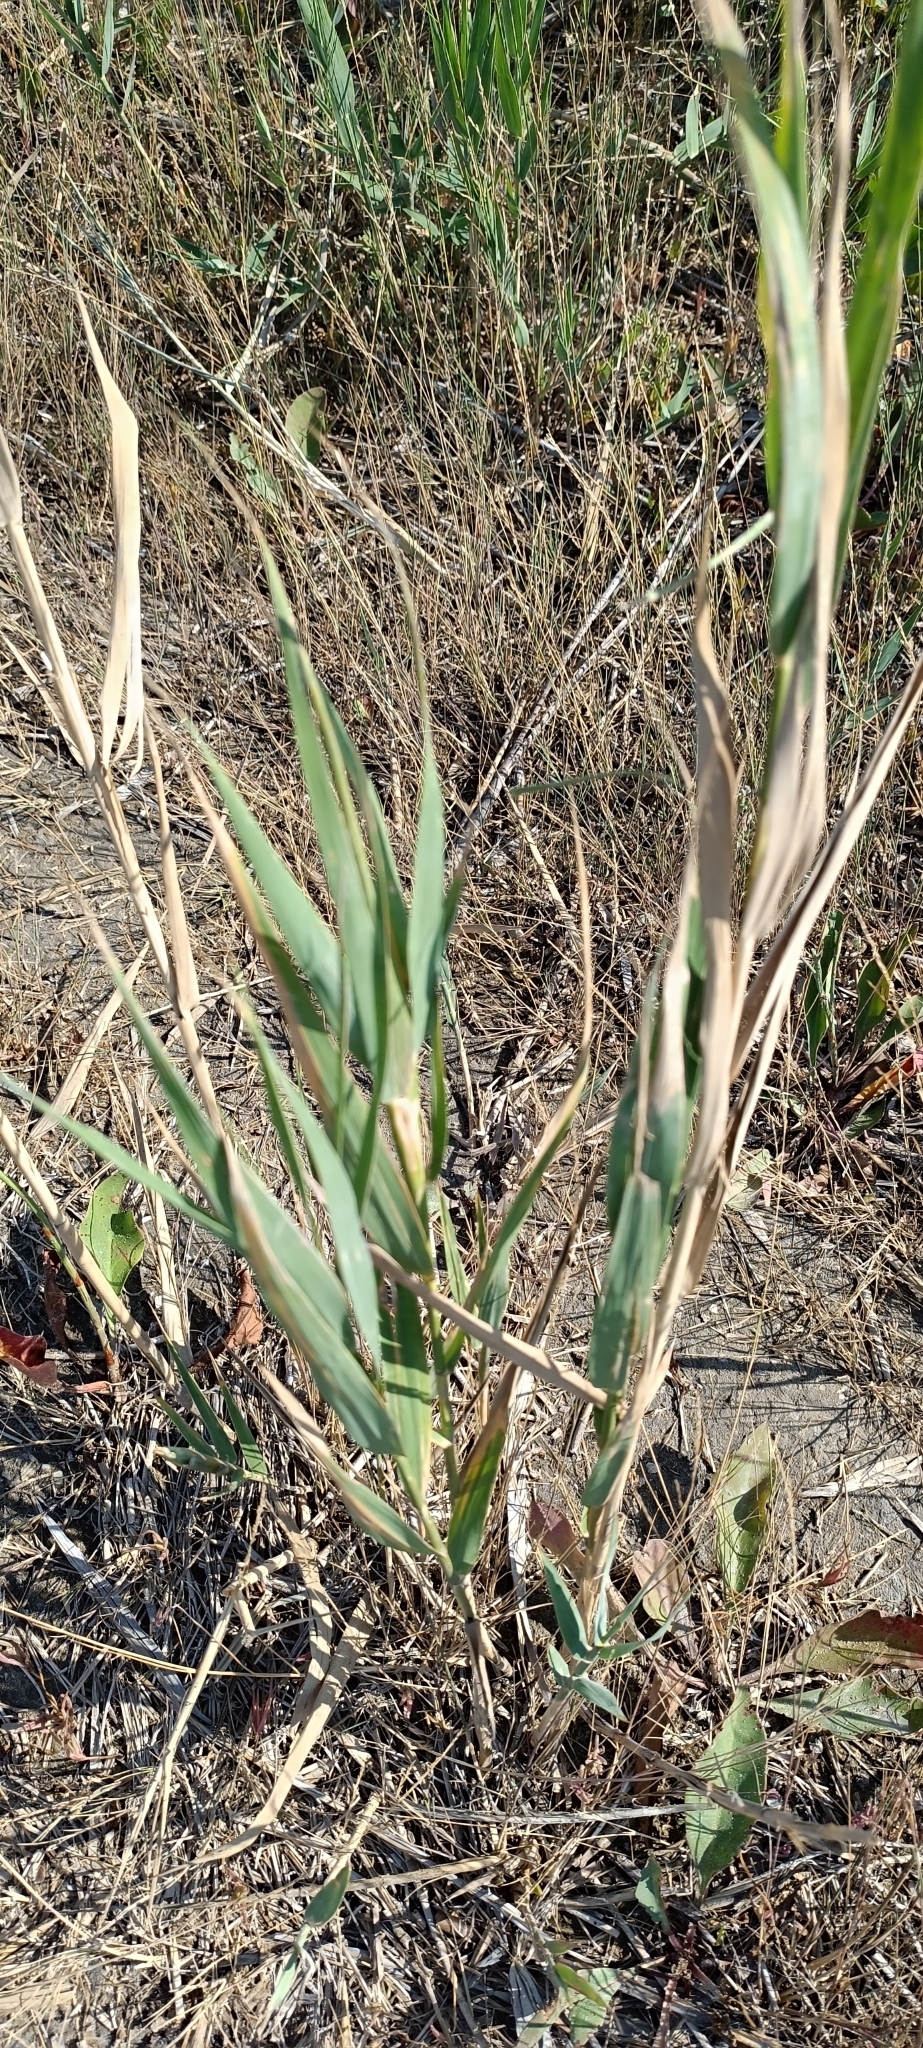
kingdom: Plantae
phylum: Tracheophyta
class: Liliopsida
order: Poales
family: Poaceae
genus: Phragmites
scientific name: Phragmites australis
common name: Common reed
